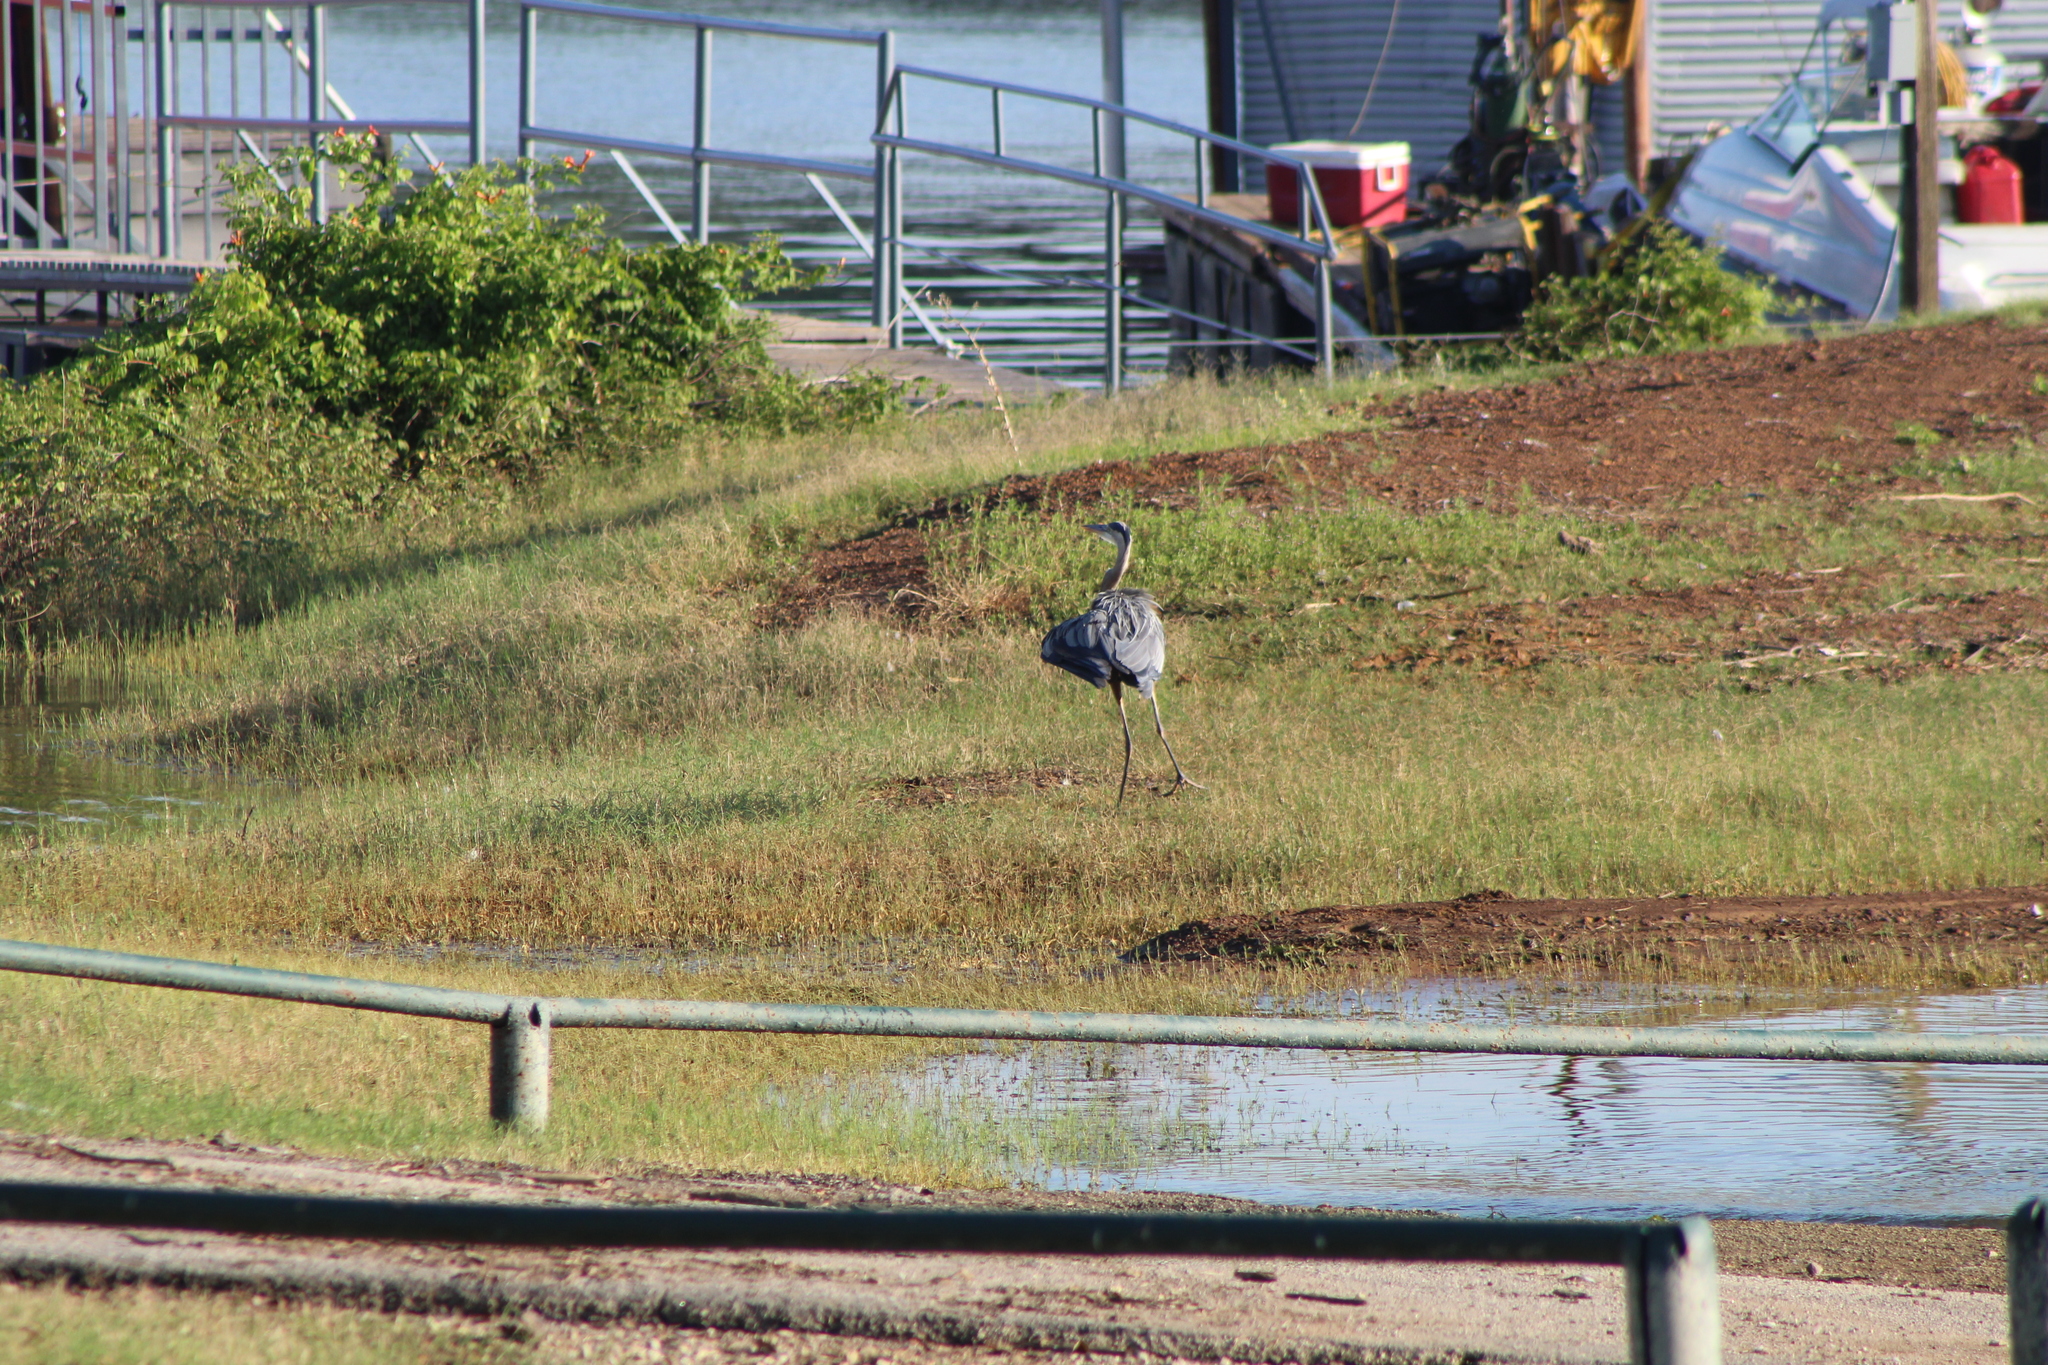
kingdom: Animalia
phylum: Chordata
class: Aves
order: Pelecaniformes
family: Ardeidae
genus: Ardea
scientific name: Ardea herodias
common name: Great blue heron
